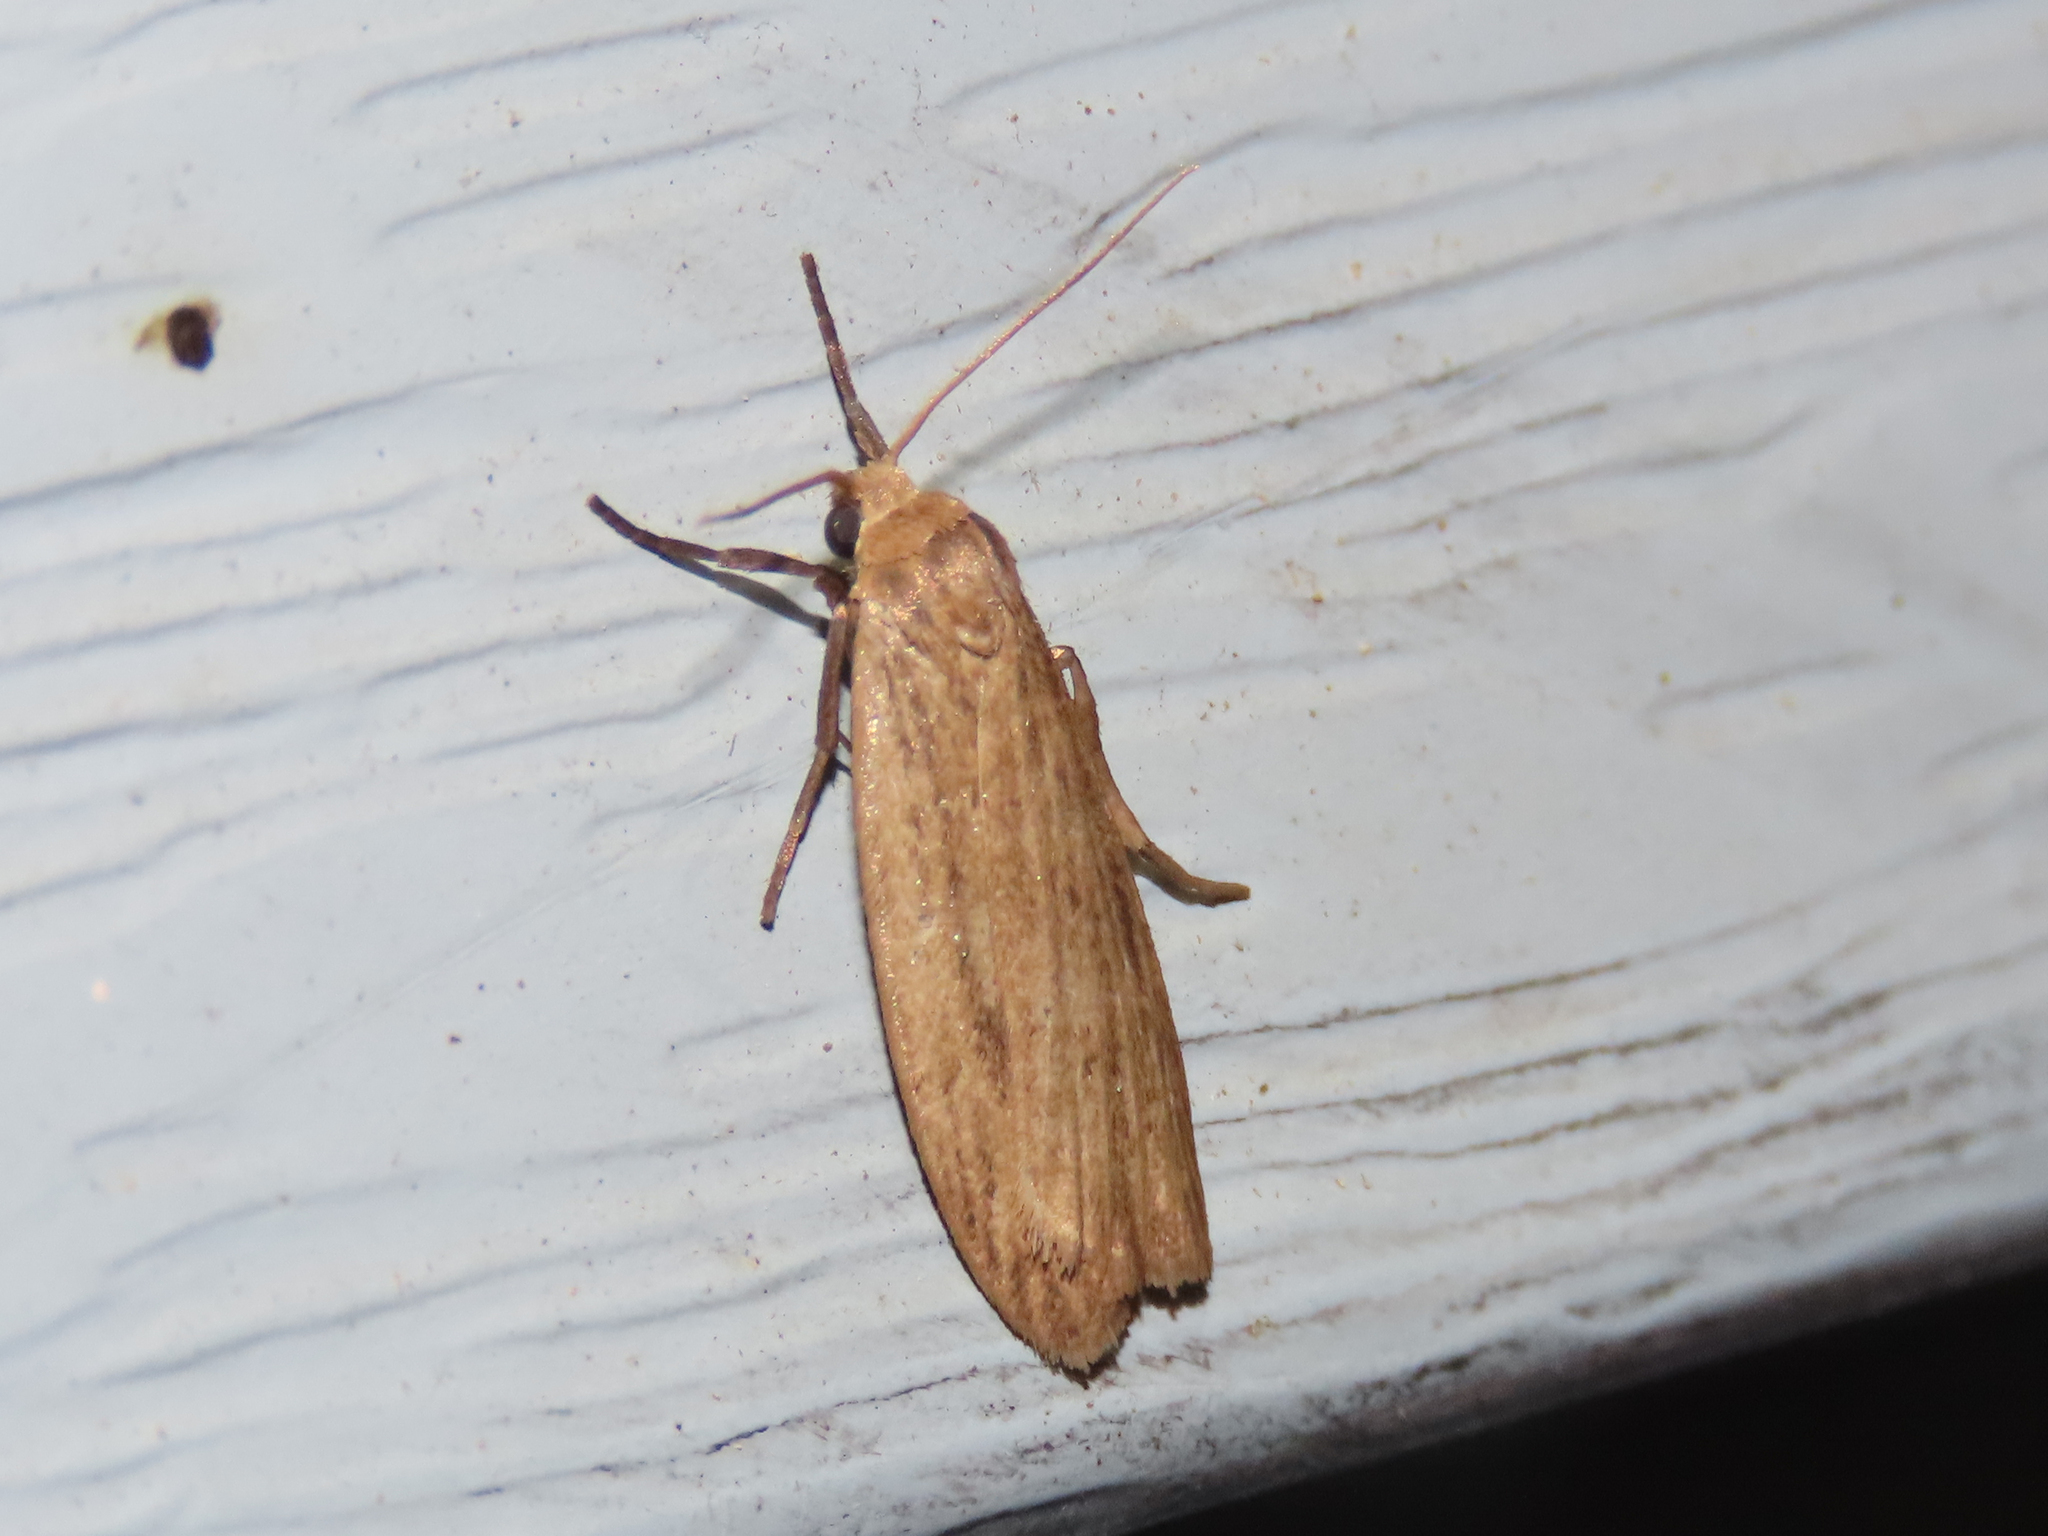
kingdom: Animalia
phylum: Arthropoda
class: Insecta
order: Lepidoptera
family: Erebidae
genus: Crambidia
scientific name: Crambidia pallida
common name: Pale lichen moth
